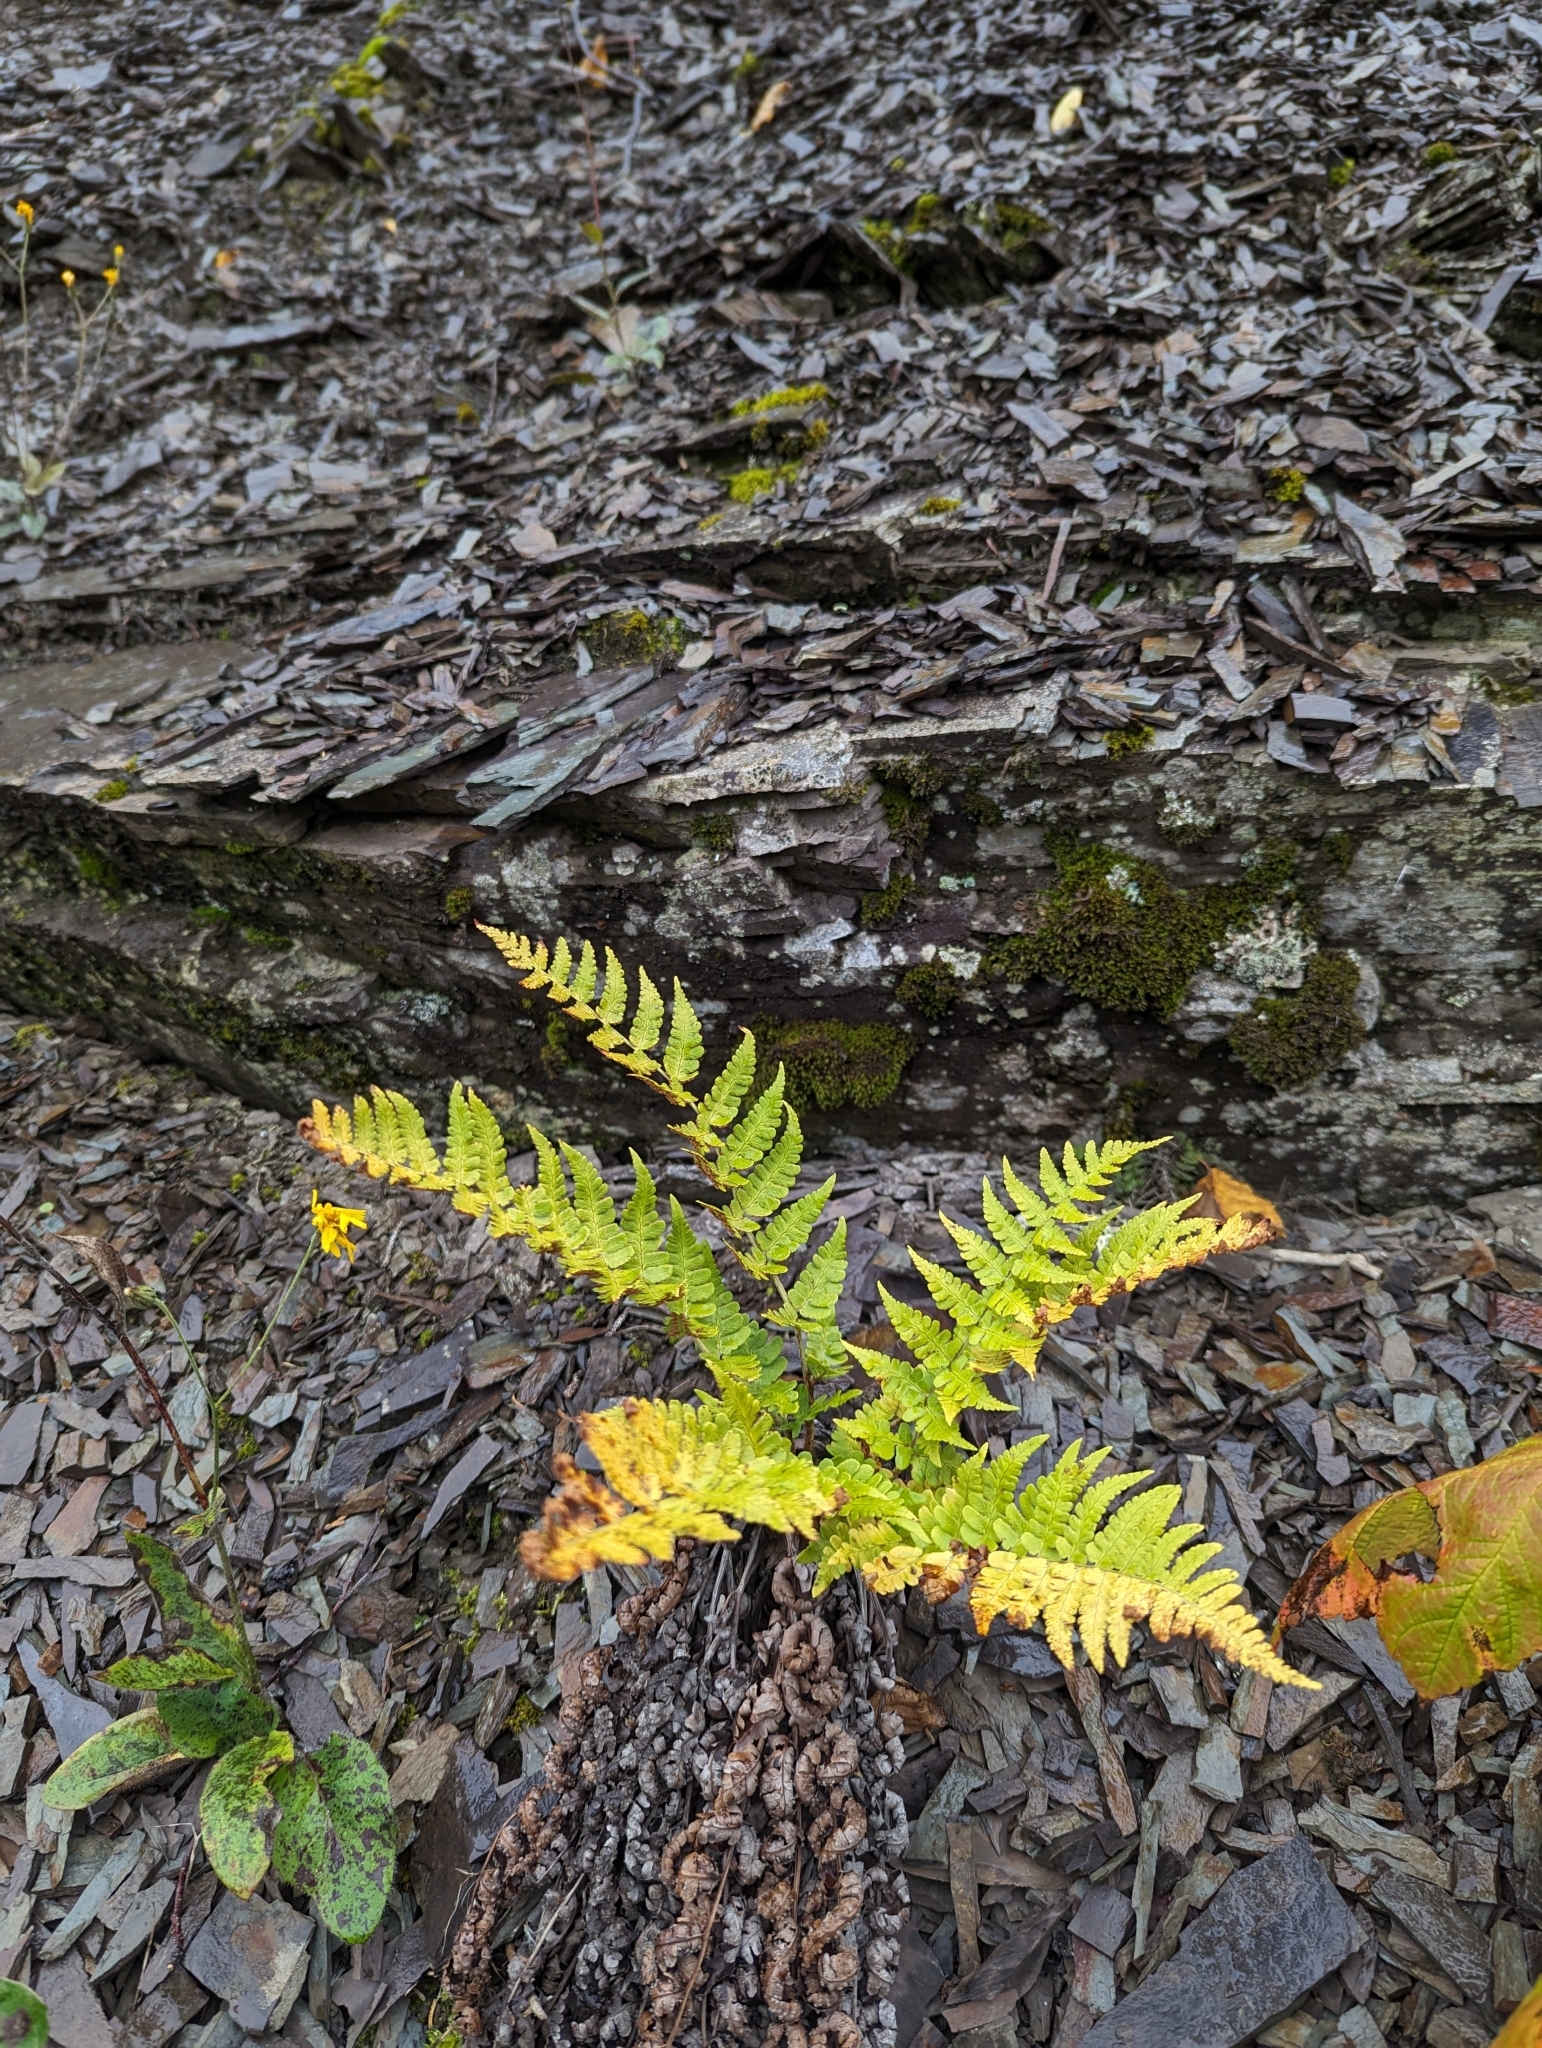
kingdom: Plantae
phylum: Tracheophyta
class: Polypodiopsida
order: Polypodiales
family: Dryopteridaceae
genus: Dryopteris
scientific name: Dryopteris marginalis
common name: Marginal wood fern
